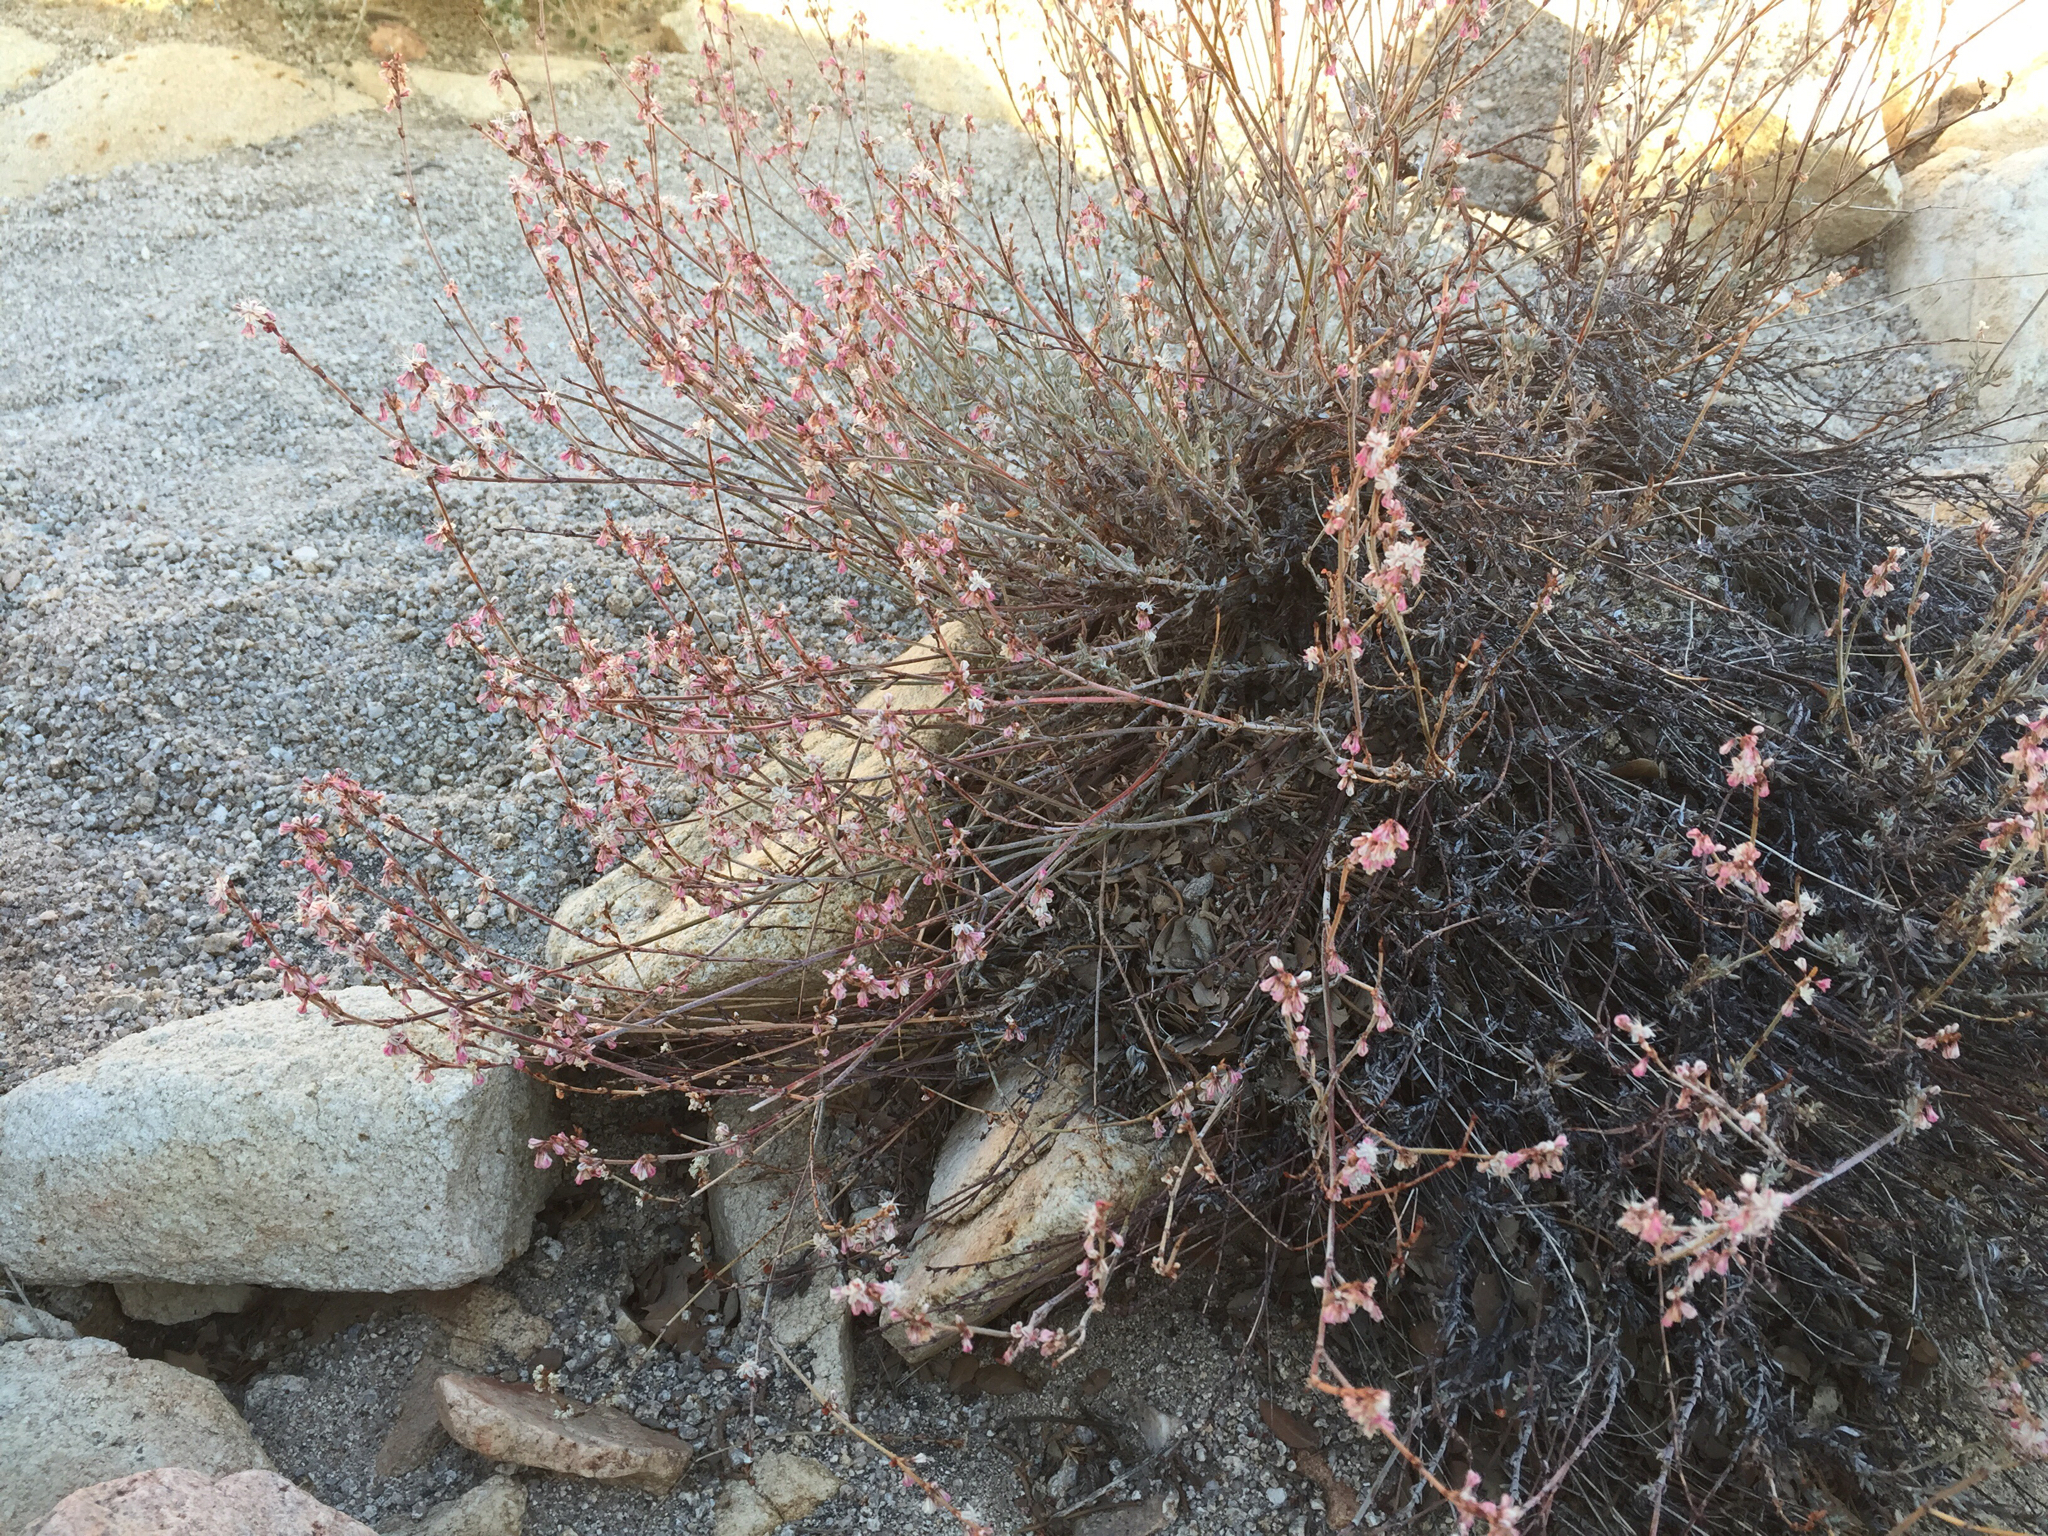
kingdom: Plantae
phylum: Tracheophyta
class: Magnoliopsida
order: Caryophyllales
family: Polygonaceae
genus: Eriogonum
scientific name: Eriogonum wrightii
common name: Bastard-sage
